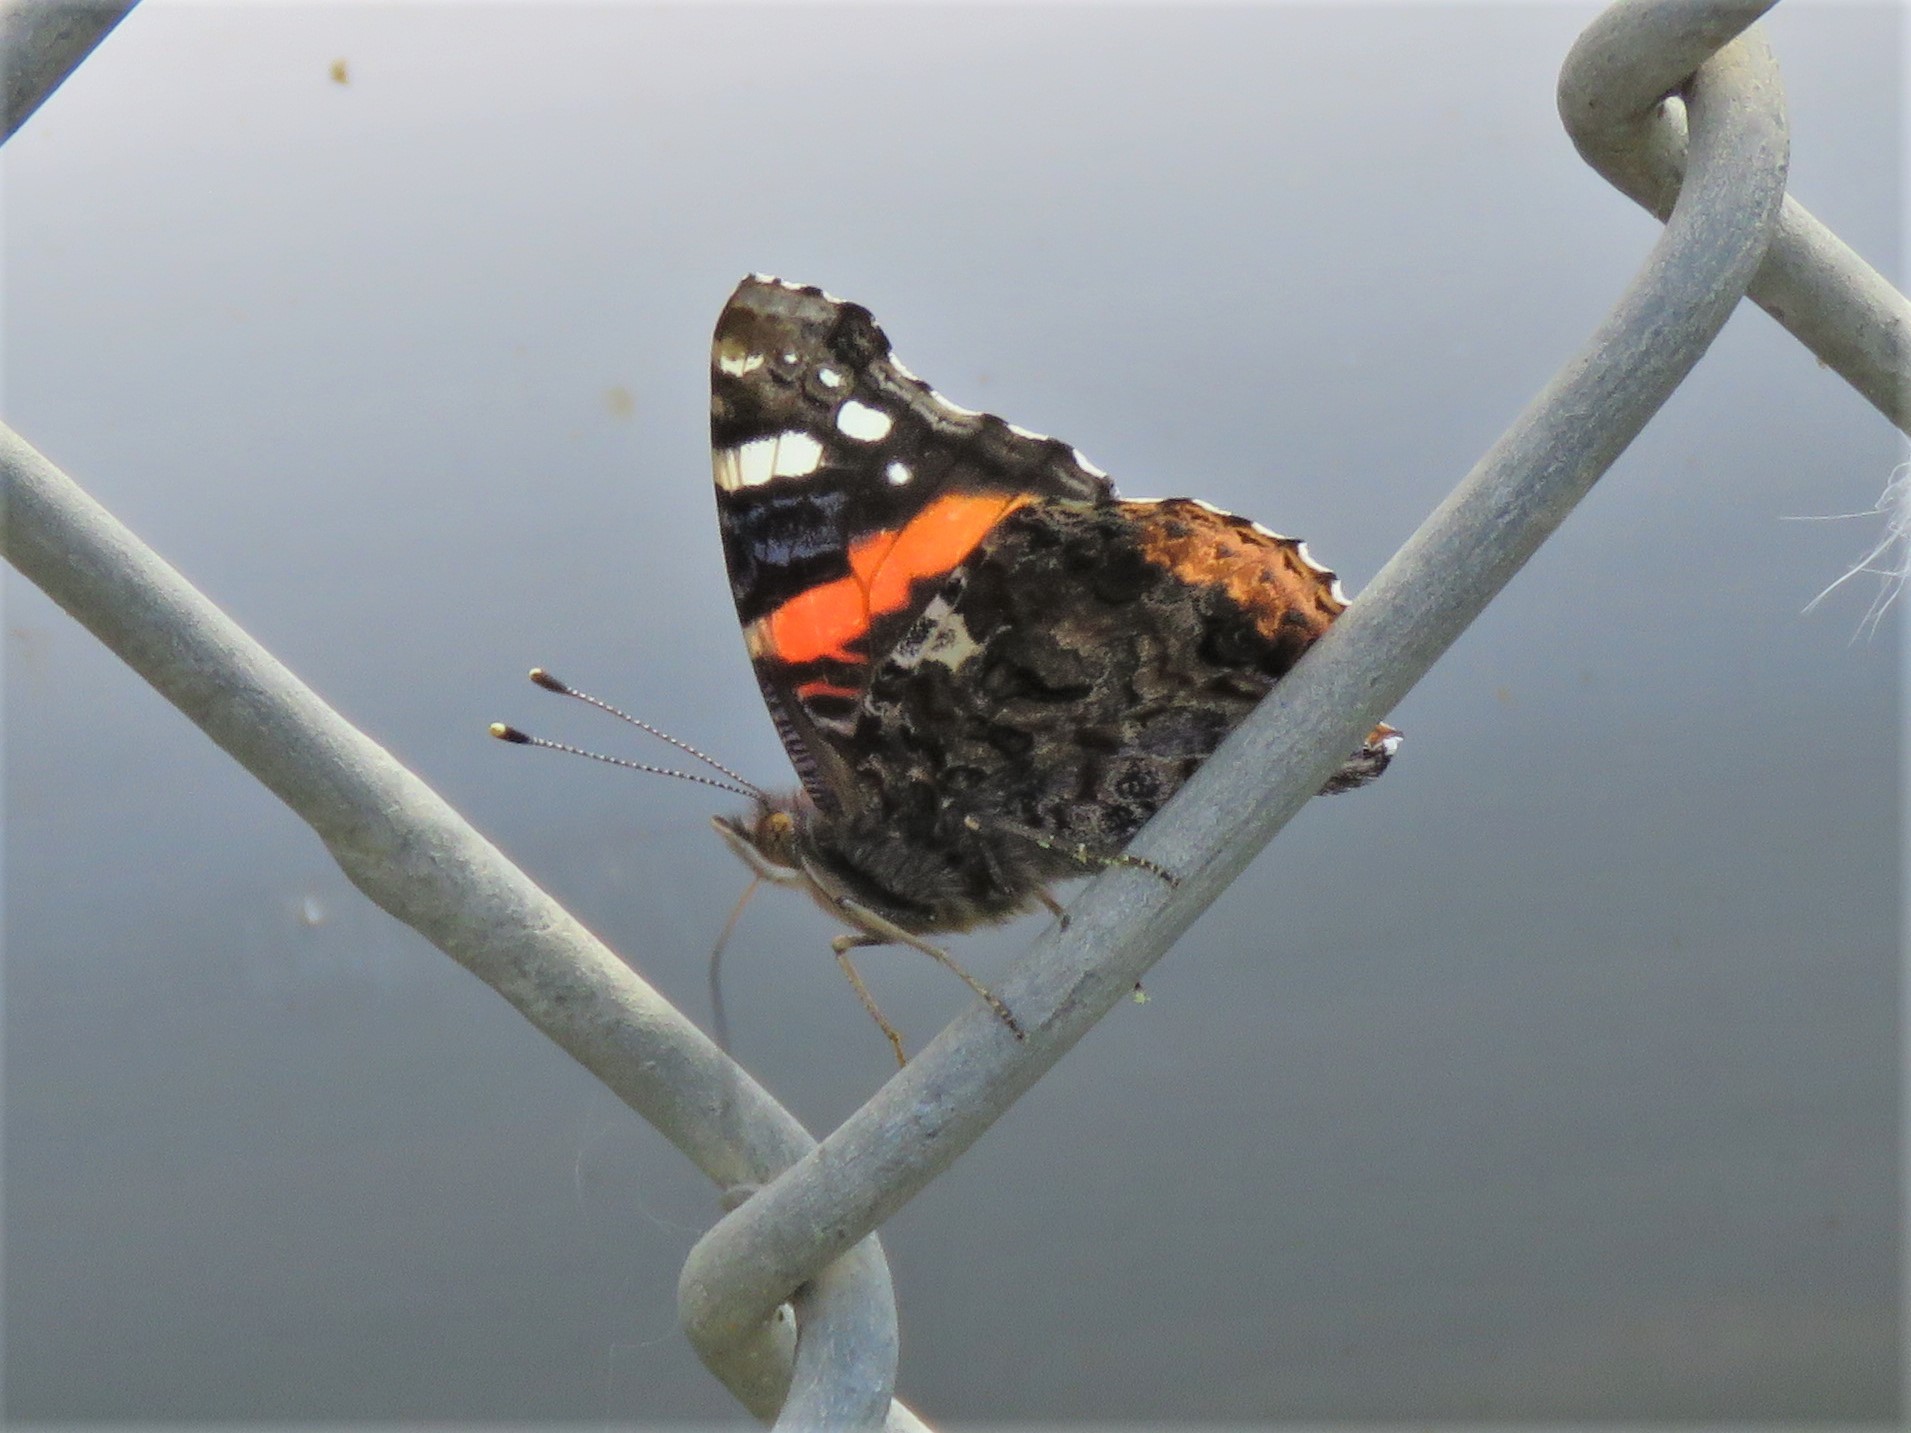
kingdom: Animalia
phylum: Arthropoda
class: Insecta
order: Lepidoptera
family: Nymphalidae
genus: Vanessa
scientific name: Vanessa atalanta
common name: Red admiral
